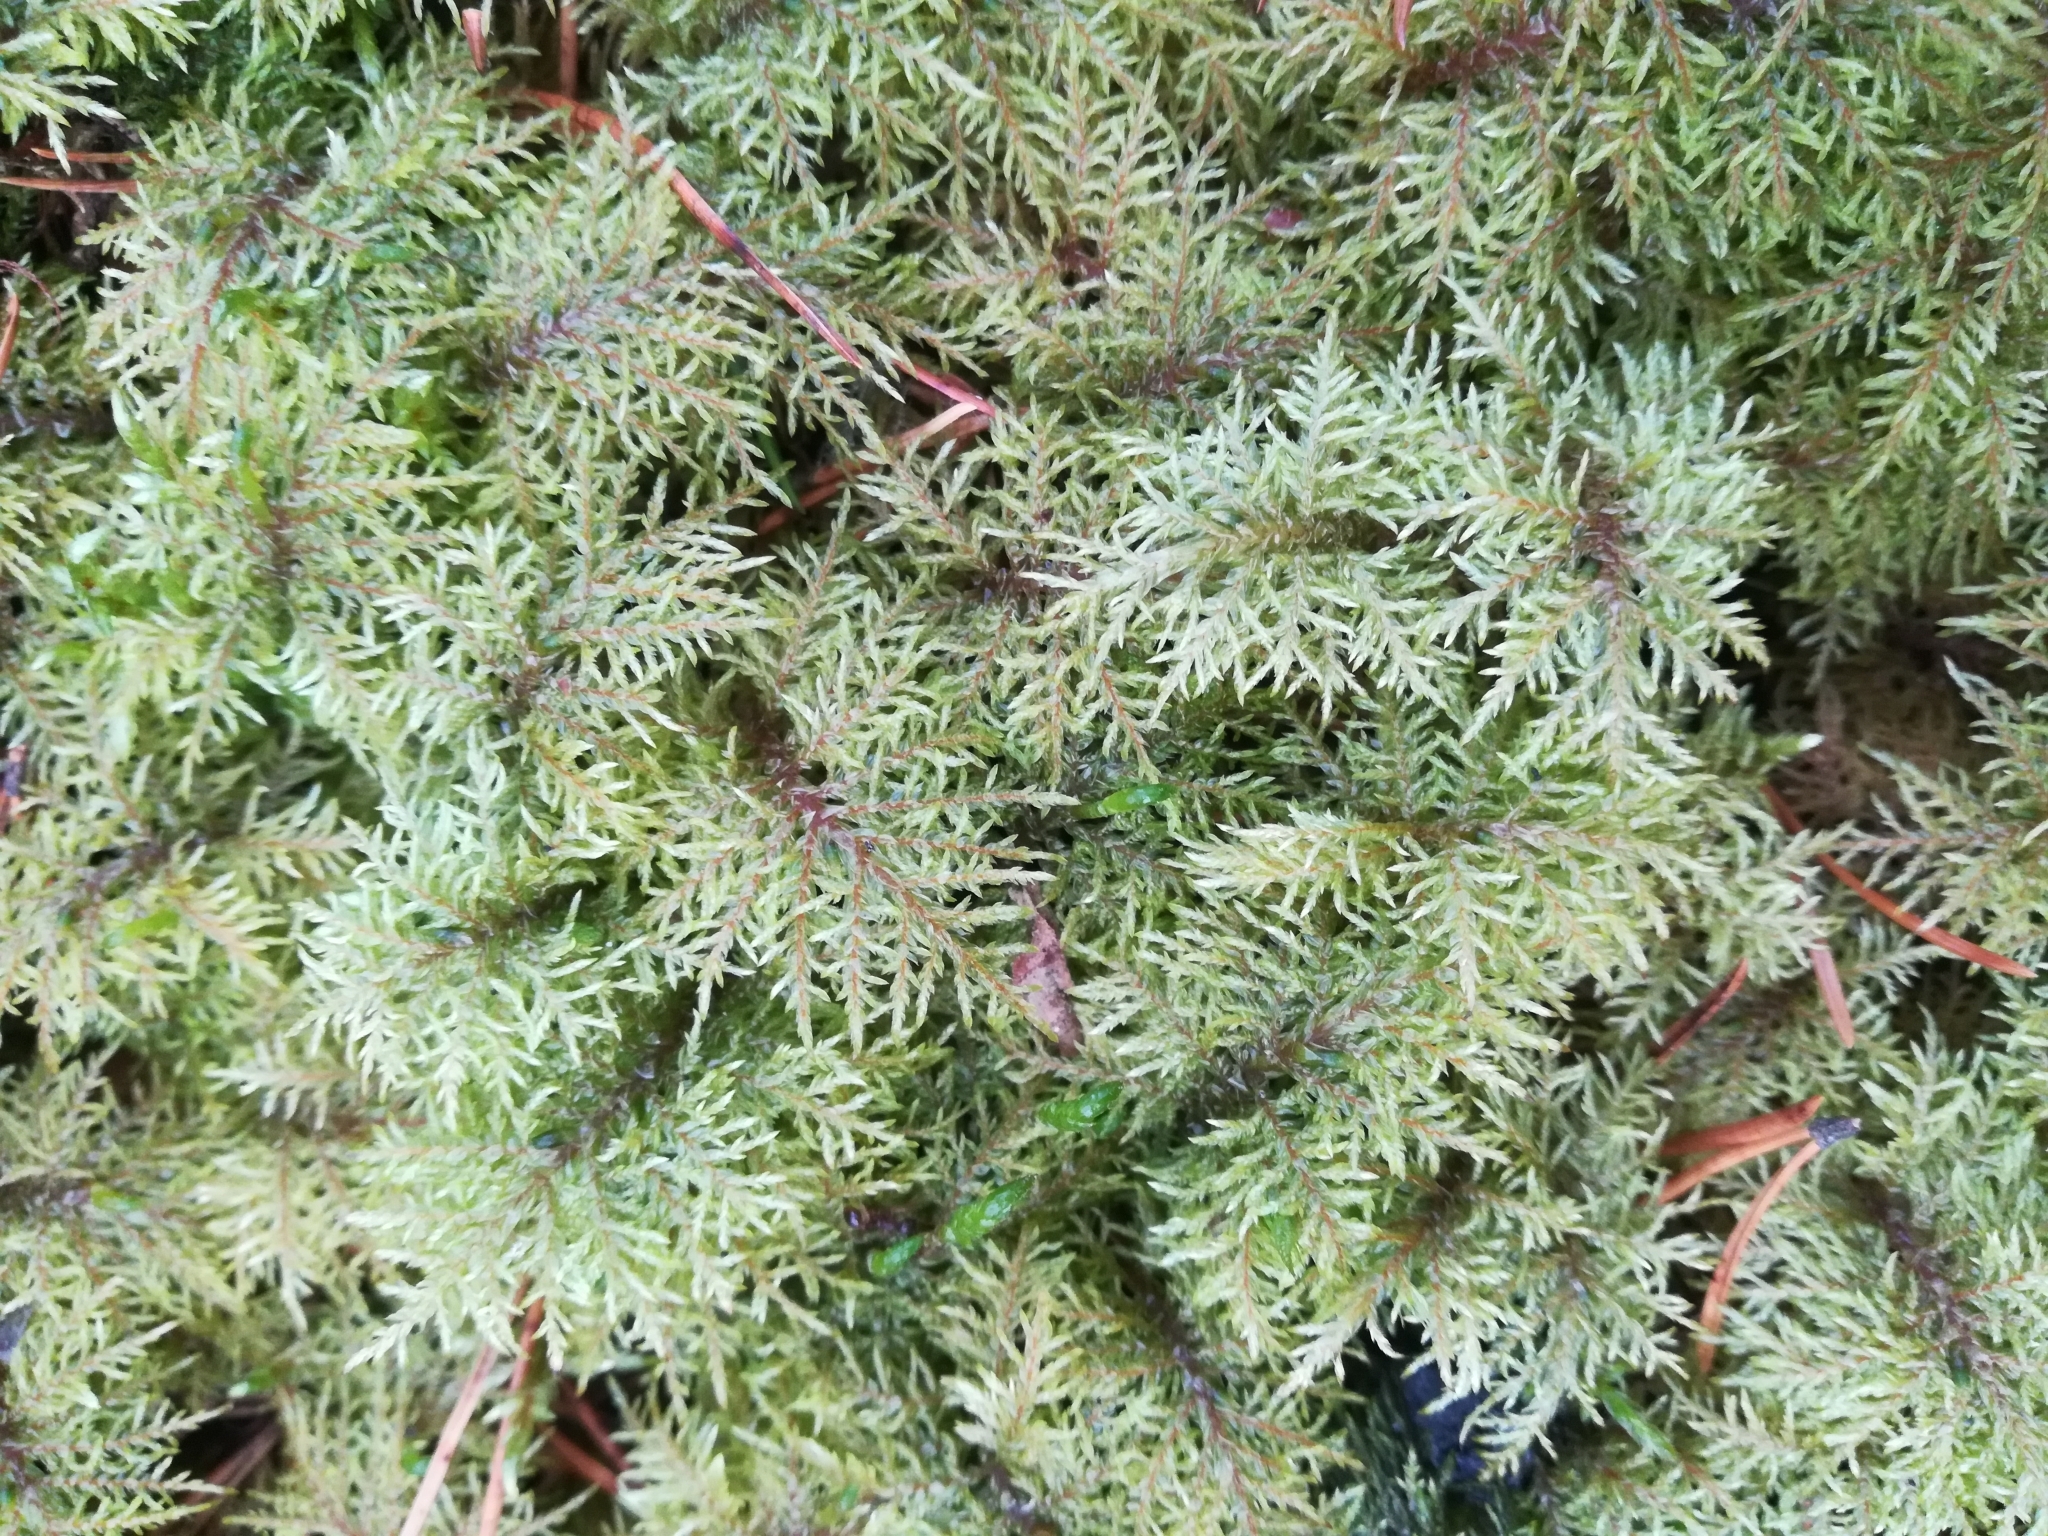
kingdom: Plantae
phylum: Bryophyta
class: Bryopsida
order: Hypnales
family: Hylocomiaceae
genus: Hylocomium
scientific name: Hylocomium splendens
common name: Stairstep moss
